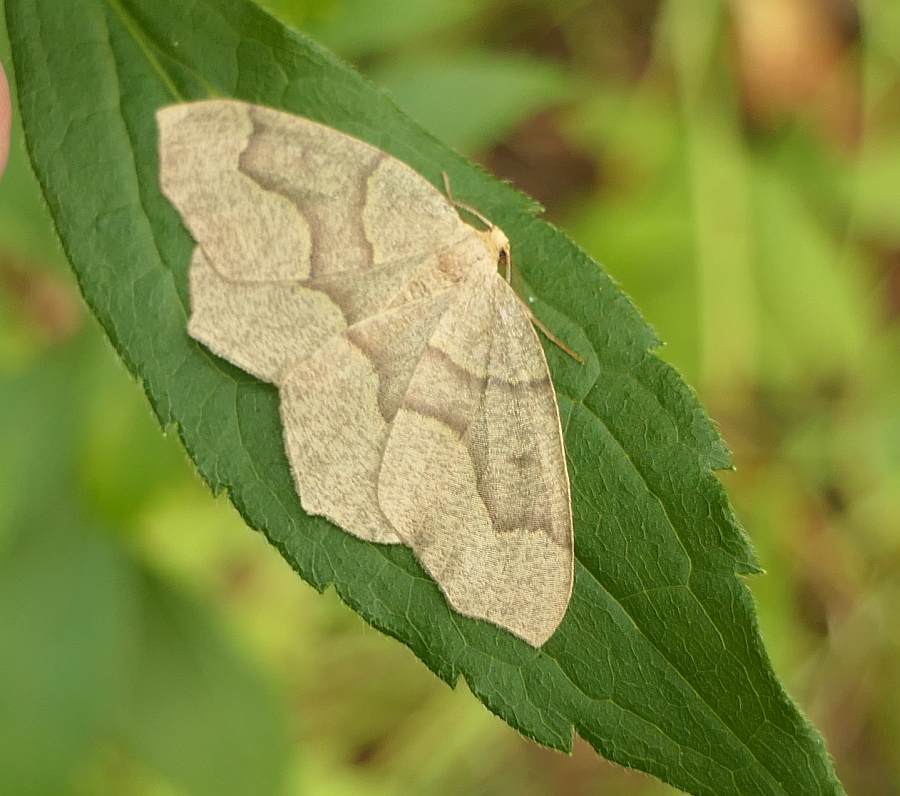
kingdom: Animalia
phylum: Arthropoda
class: Insecta
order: Lepidoptera
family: Geometridae
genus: Lambdina
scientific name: Lambdina fiscellaria
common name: Hemlock looper
